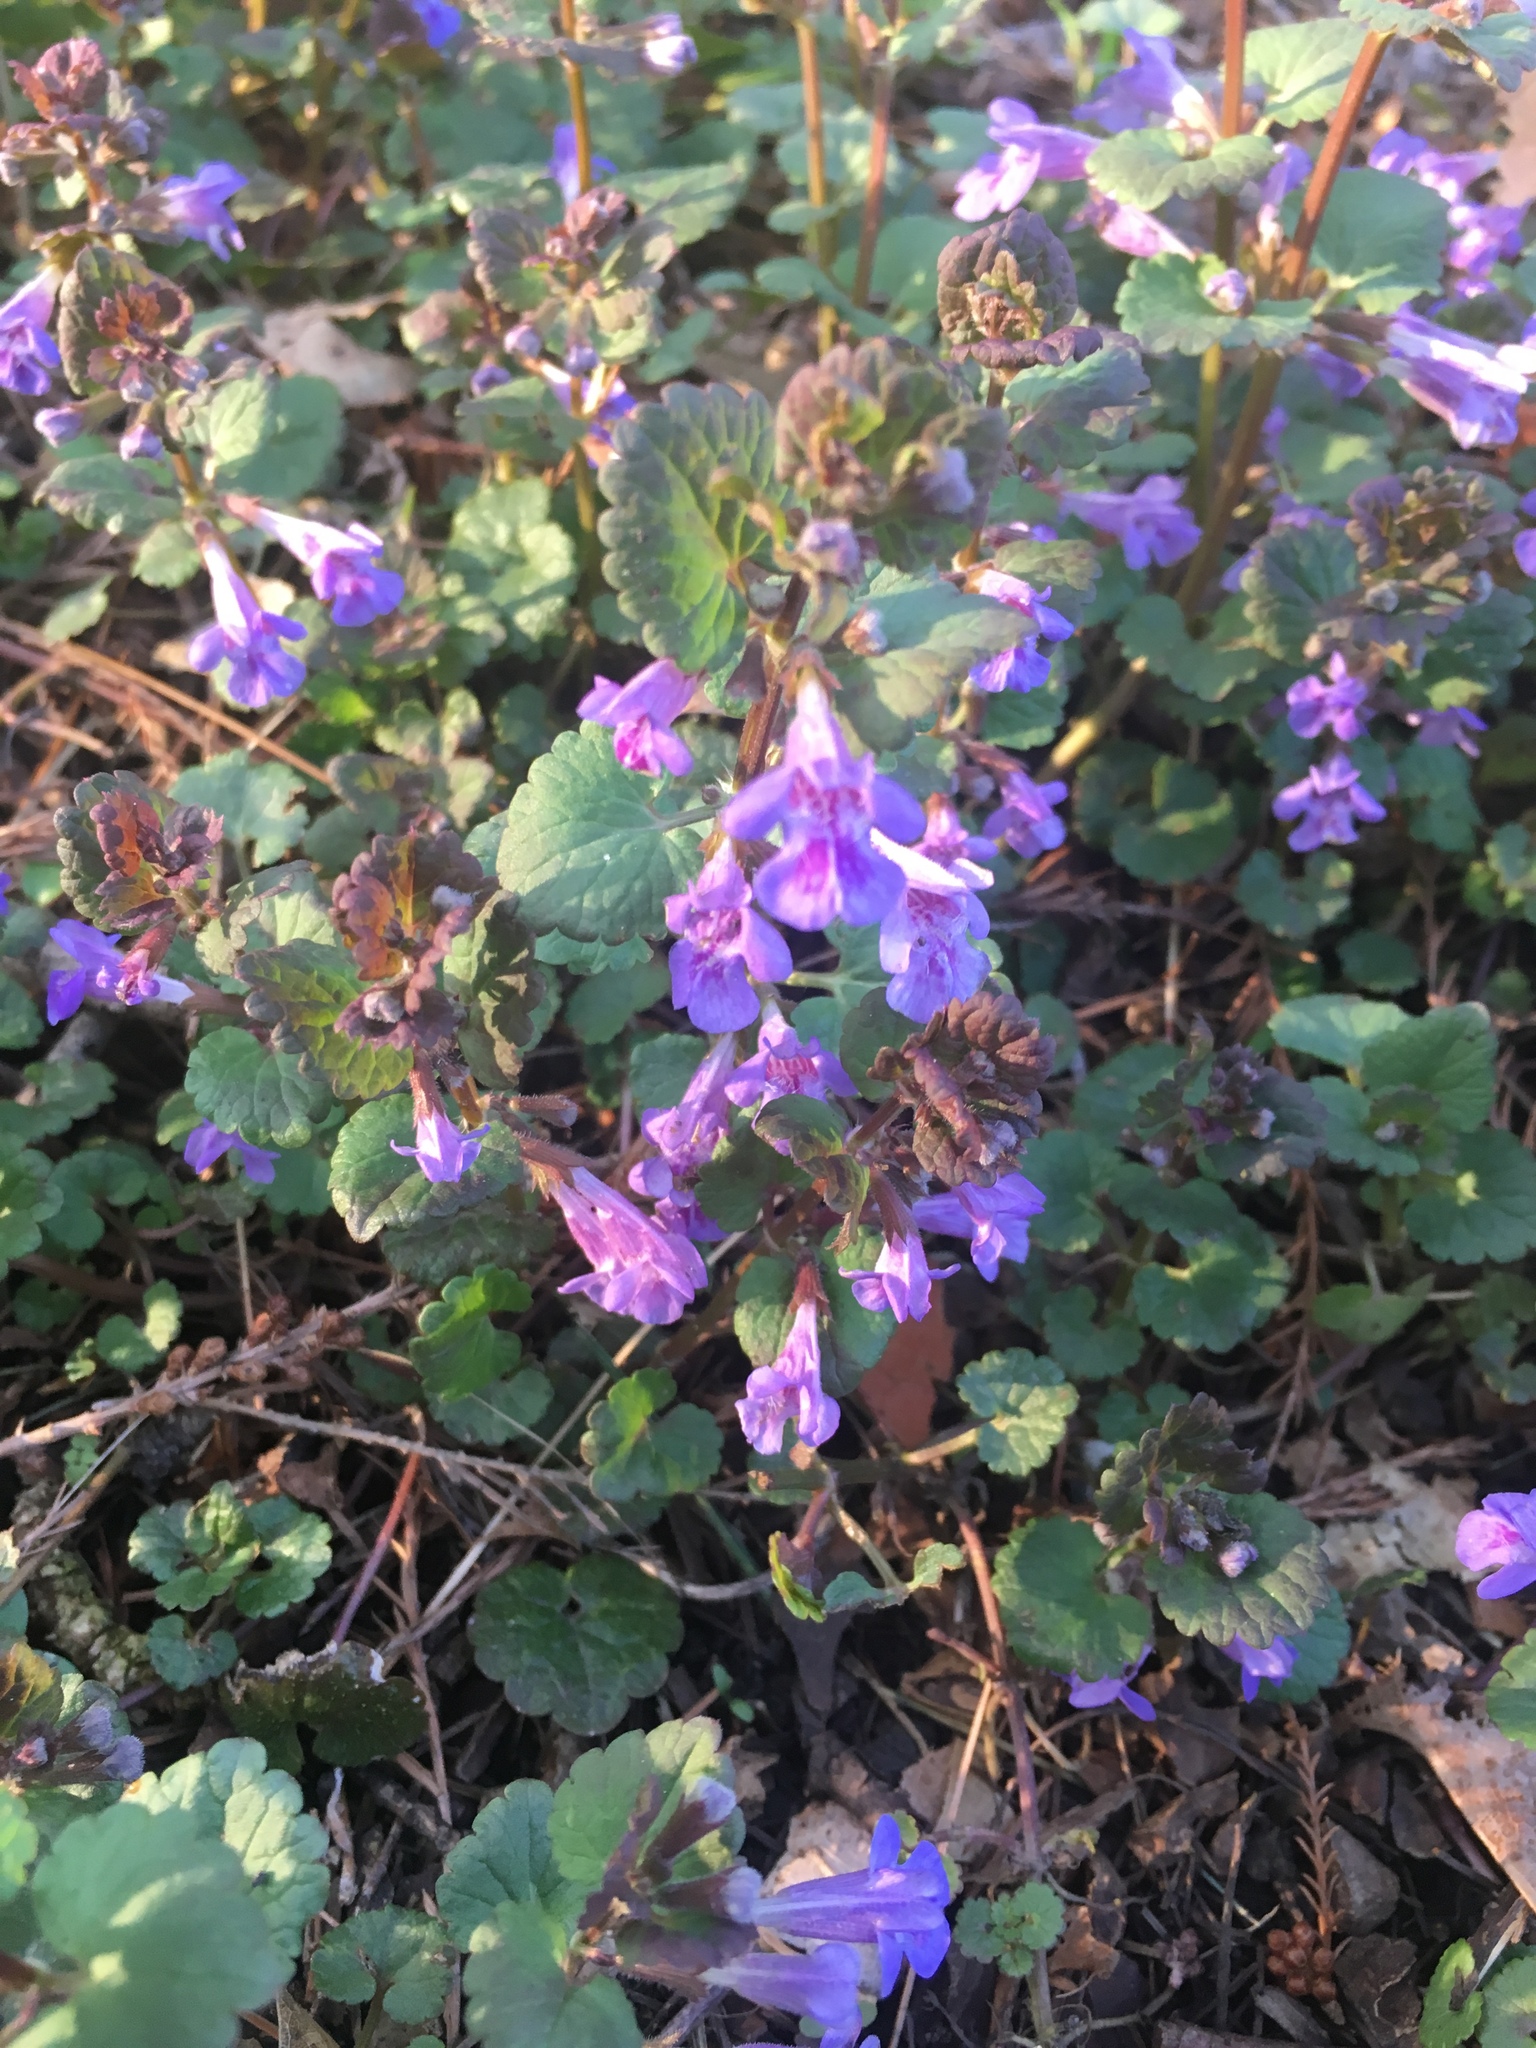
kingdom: Plantae
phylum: Tracheophyta
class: Magnoliopsida
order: Lamiales
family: Lamiaceae
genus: Glechoma
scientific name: Glechoma hederacea
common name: Ground ivy
